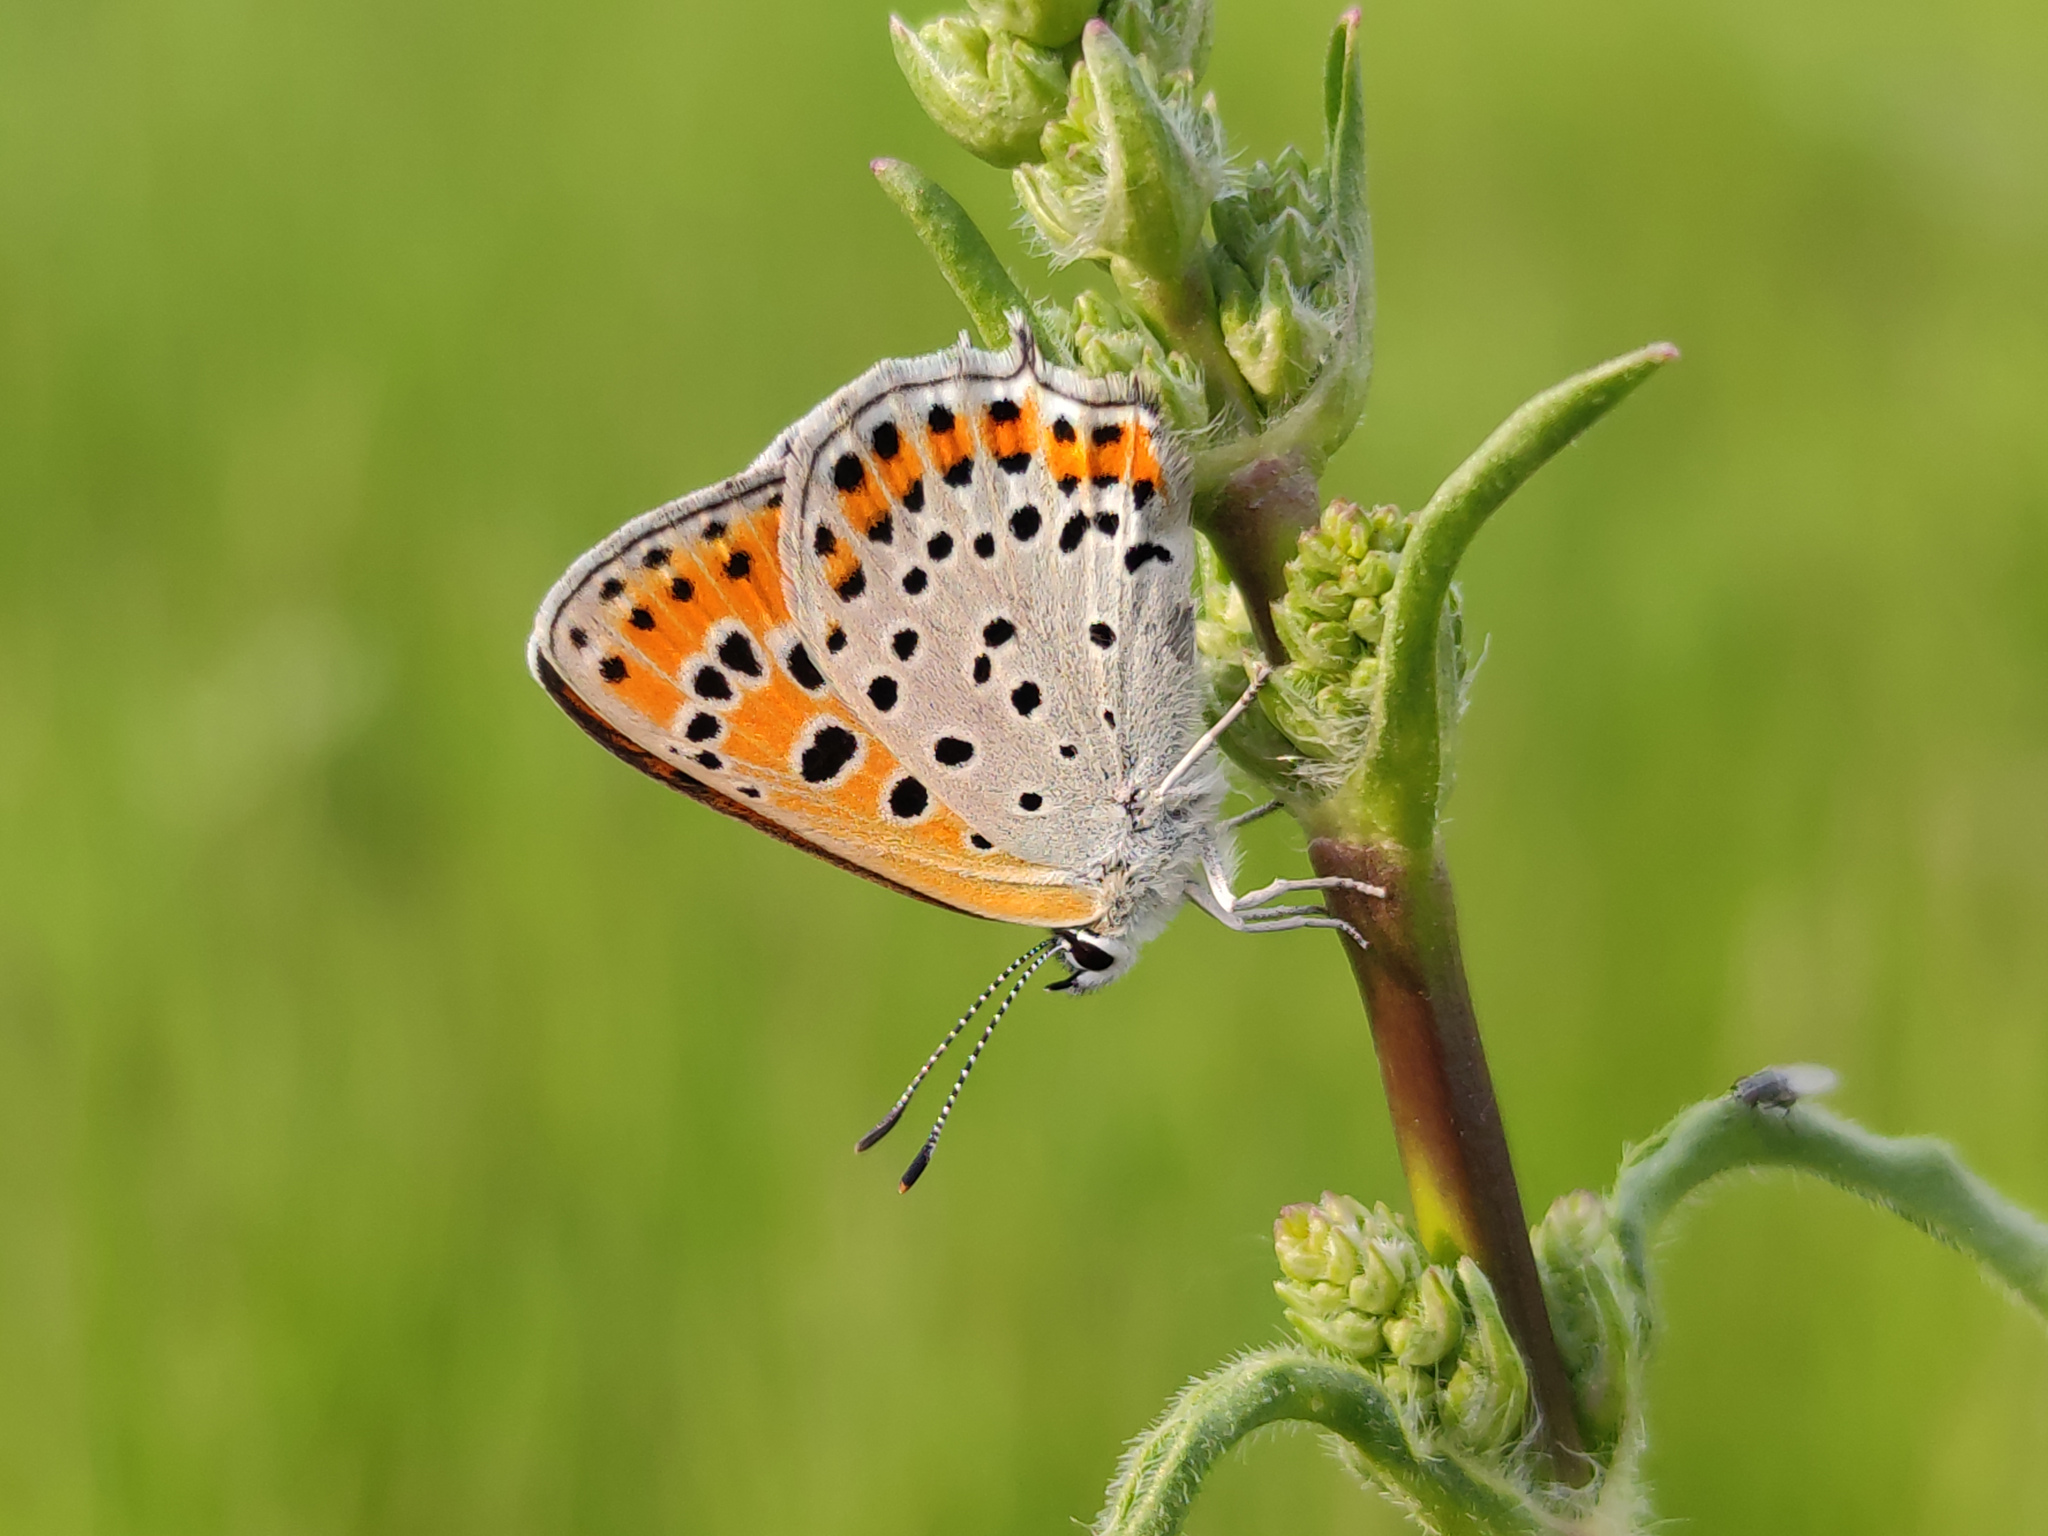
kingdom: Animalia
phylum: Arthropoda
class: Insecta
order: Lepidoptera
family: Lycaenidae
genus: Thersamonia
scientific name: Thersamonia thersamon
